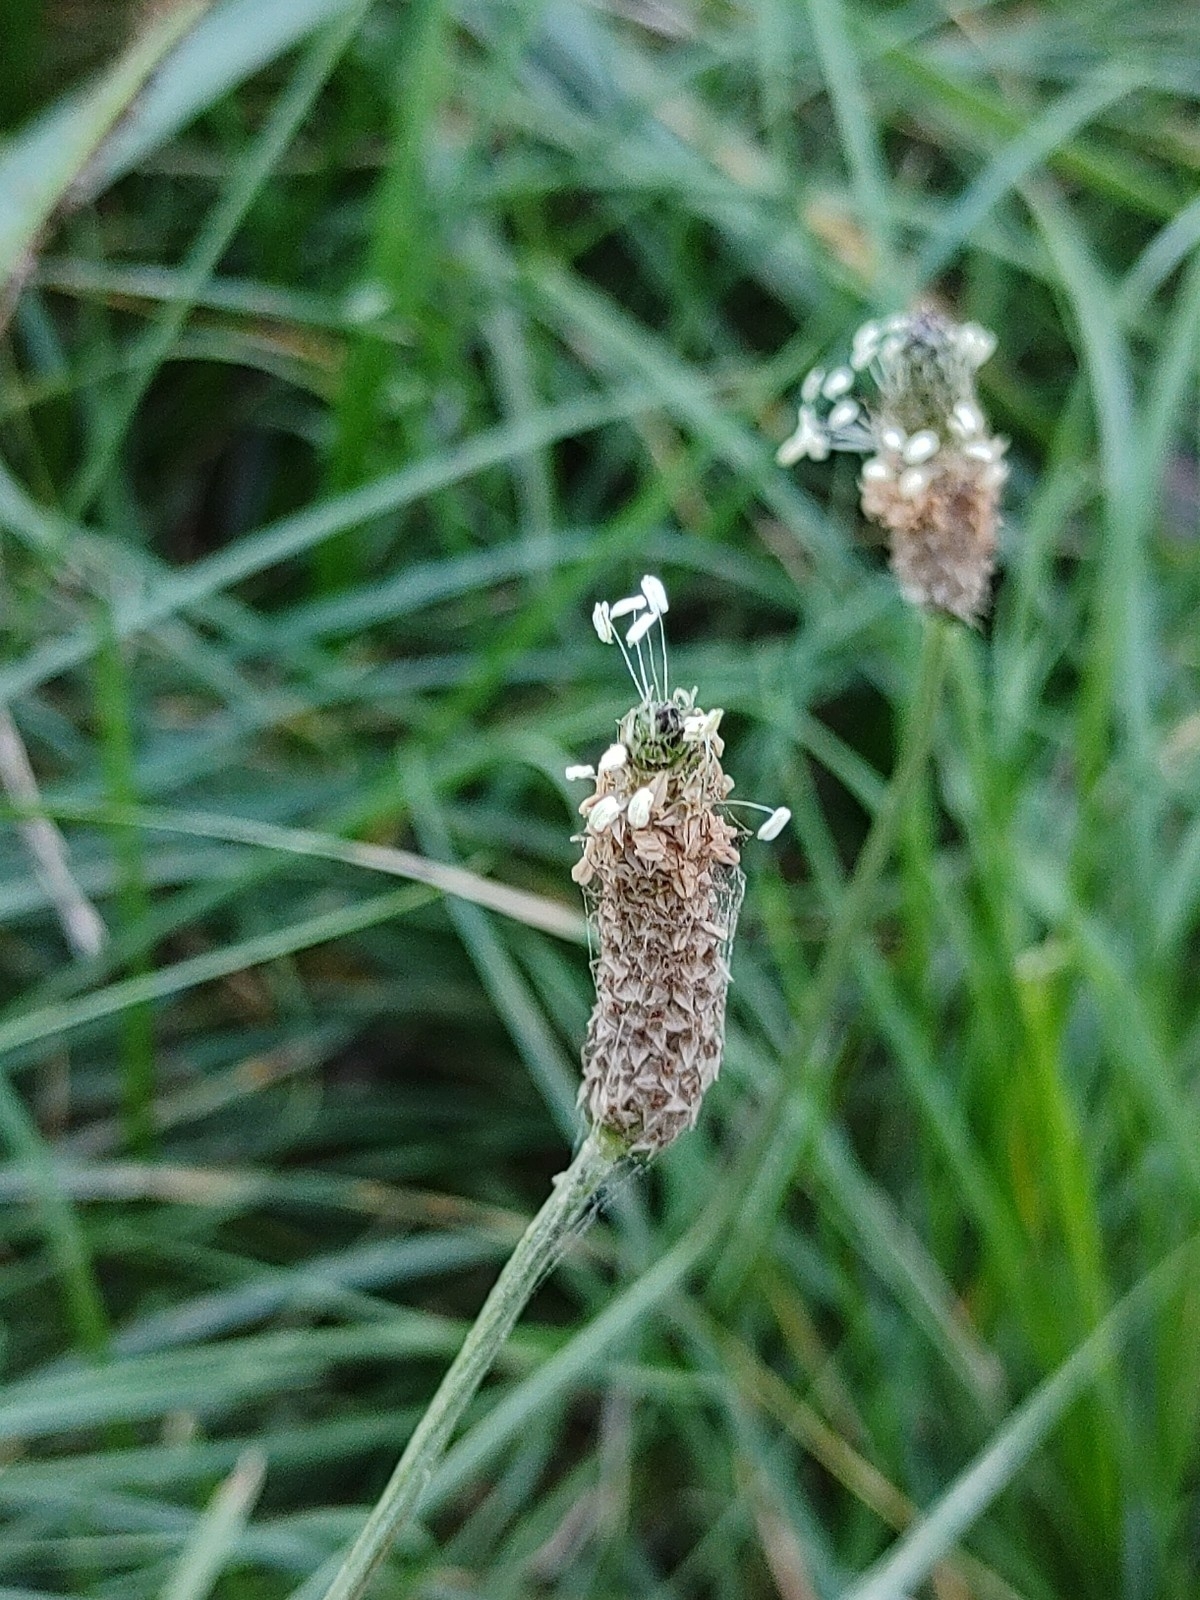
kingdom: Plantae
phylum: Tracheophyta
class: Magnoliopsida
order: Lamiales
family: Plantaginaceae
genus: Plantago
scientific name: Plantago lanceolata
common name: Ribwort plantain
